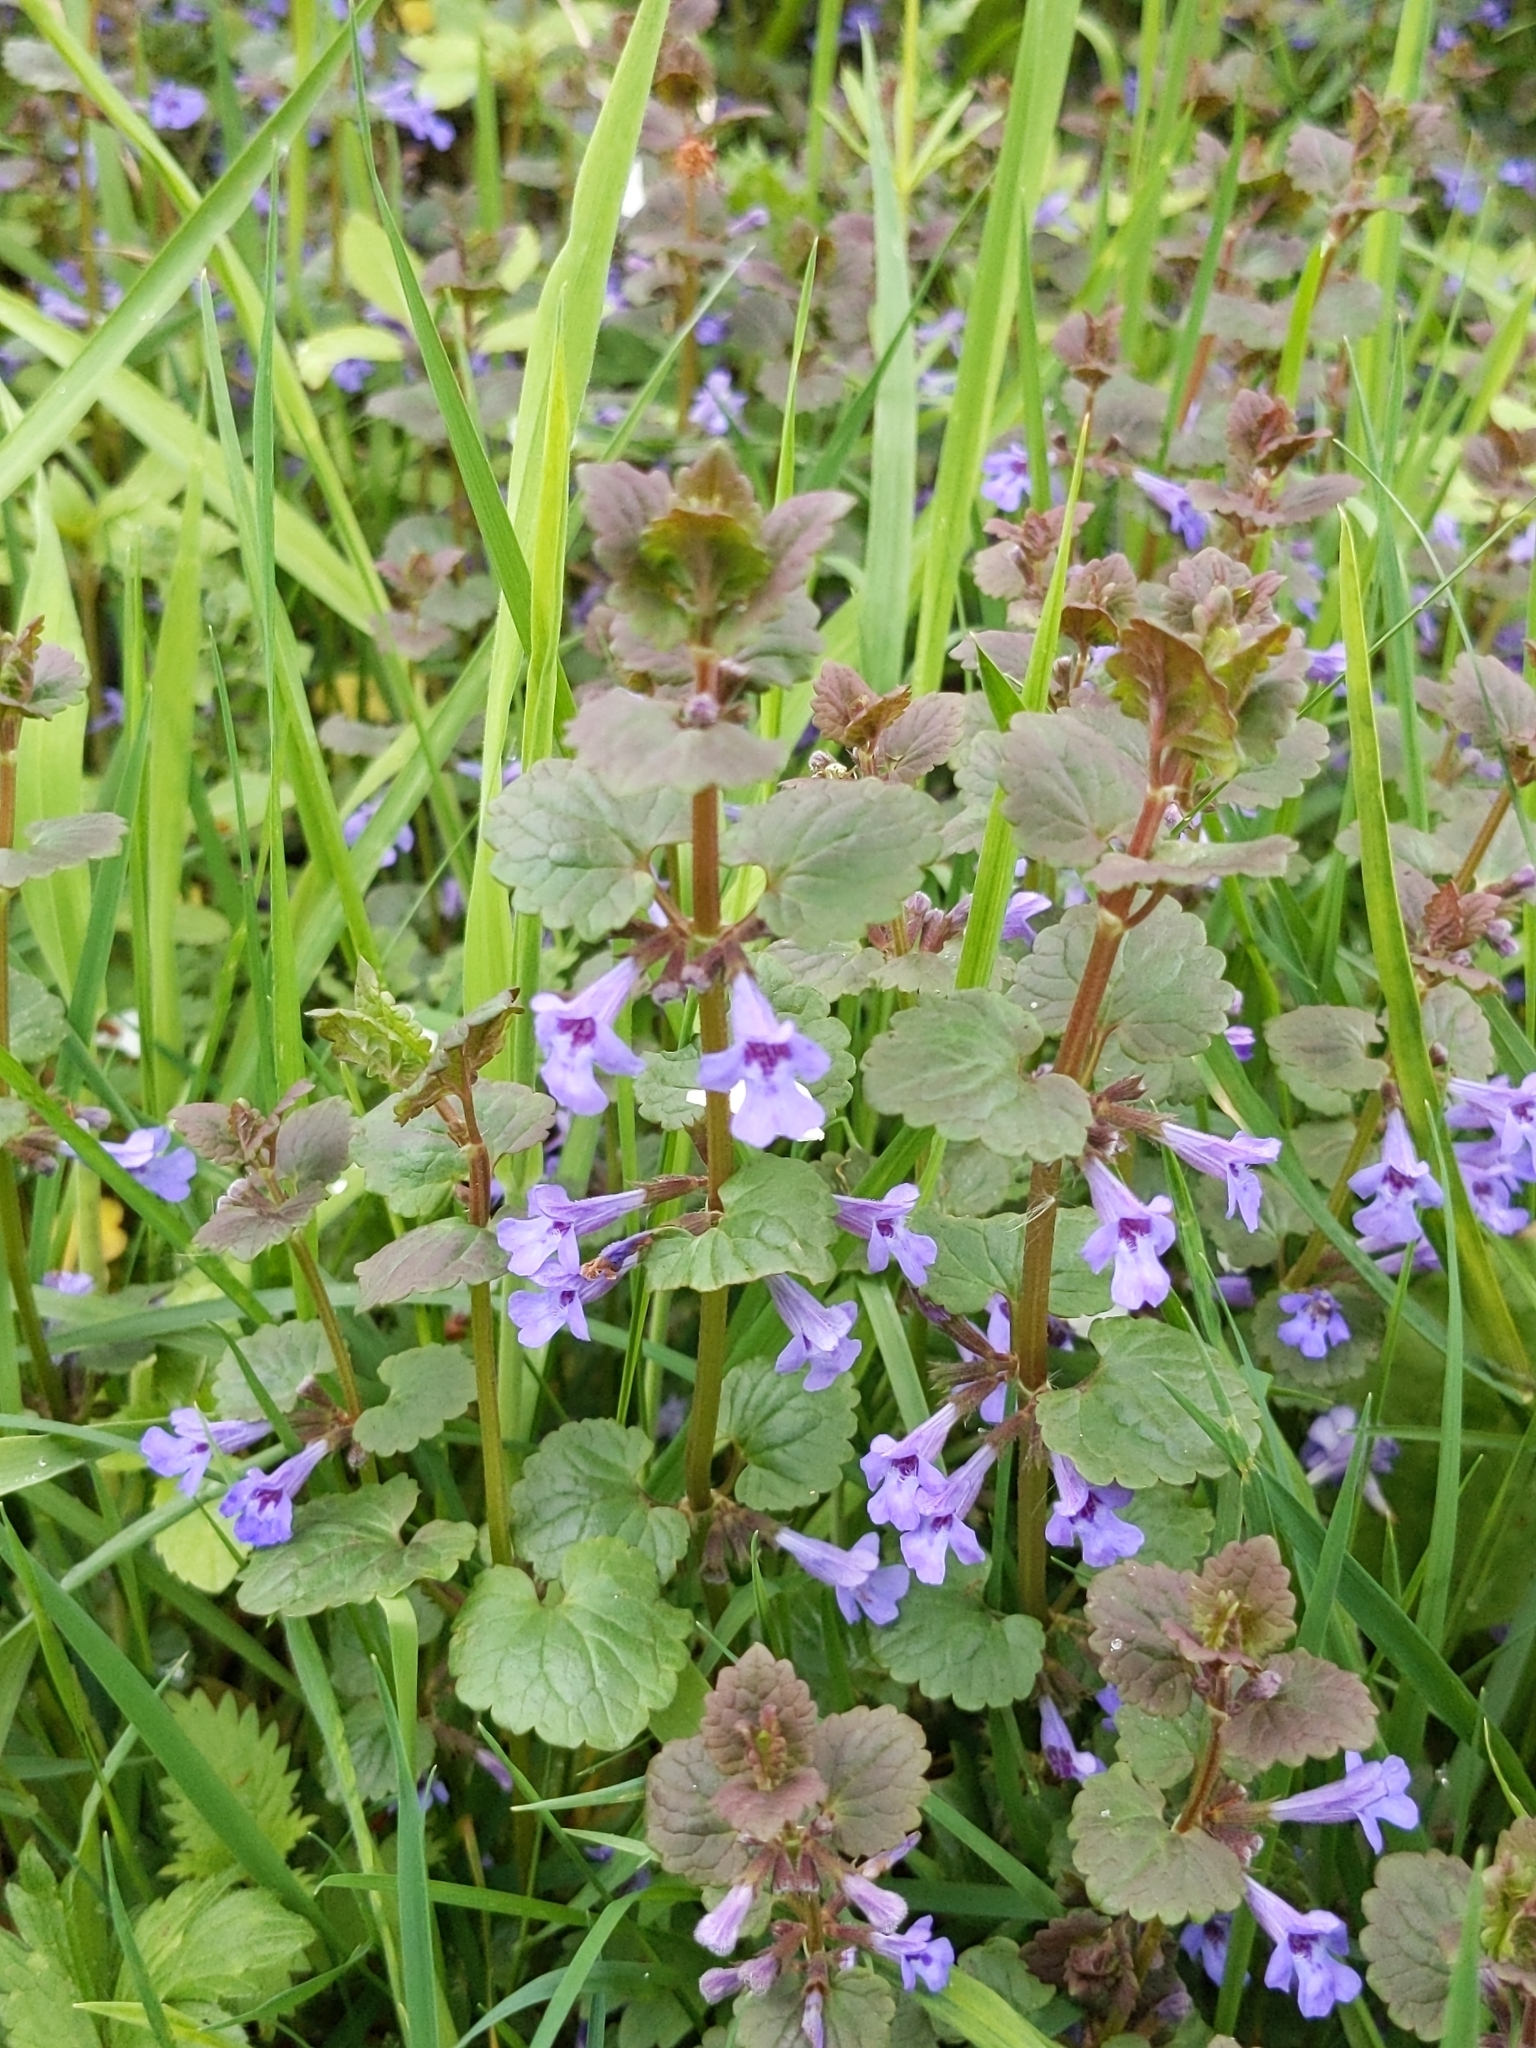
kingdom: Plantae
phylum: Tracheophyta
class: Magnoliopsida
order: Lamiales
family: Lamiaceae
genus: Glechoma
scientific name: Glechoma hederacea
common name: Ground ivy
